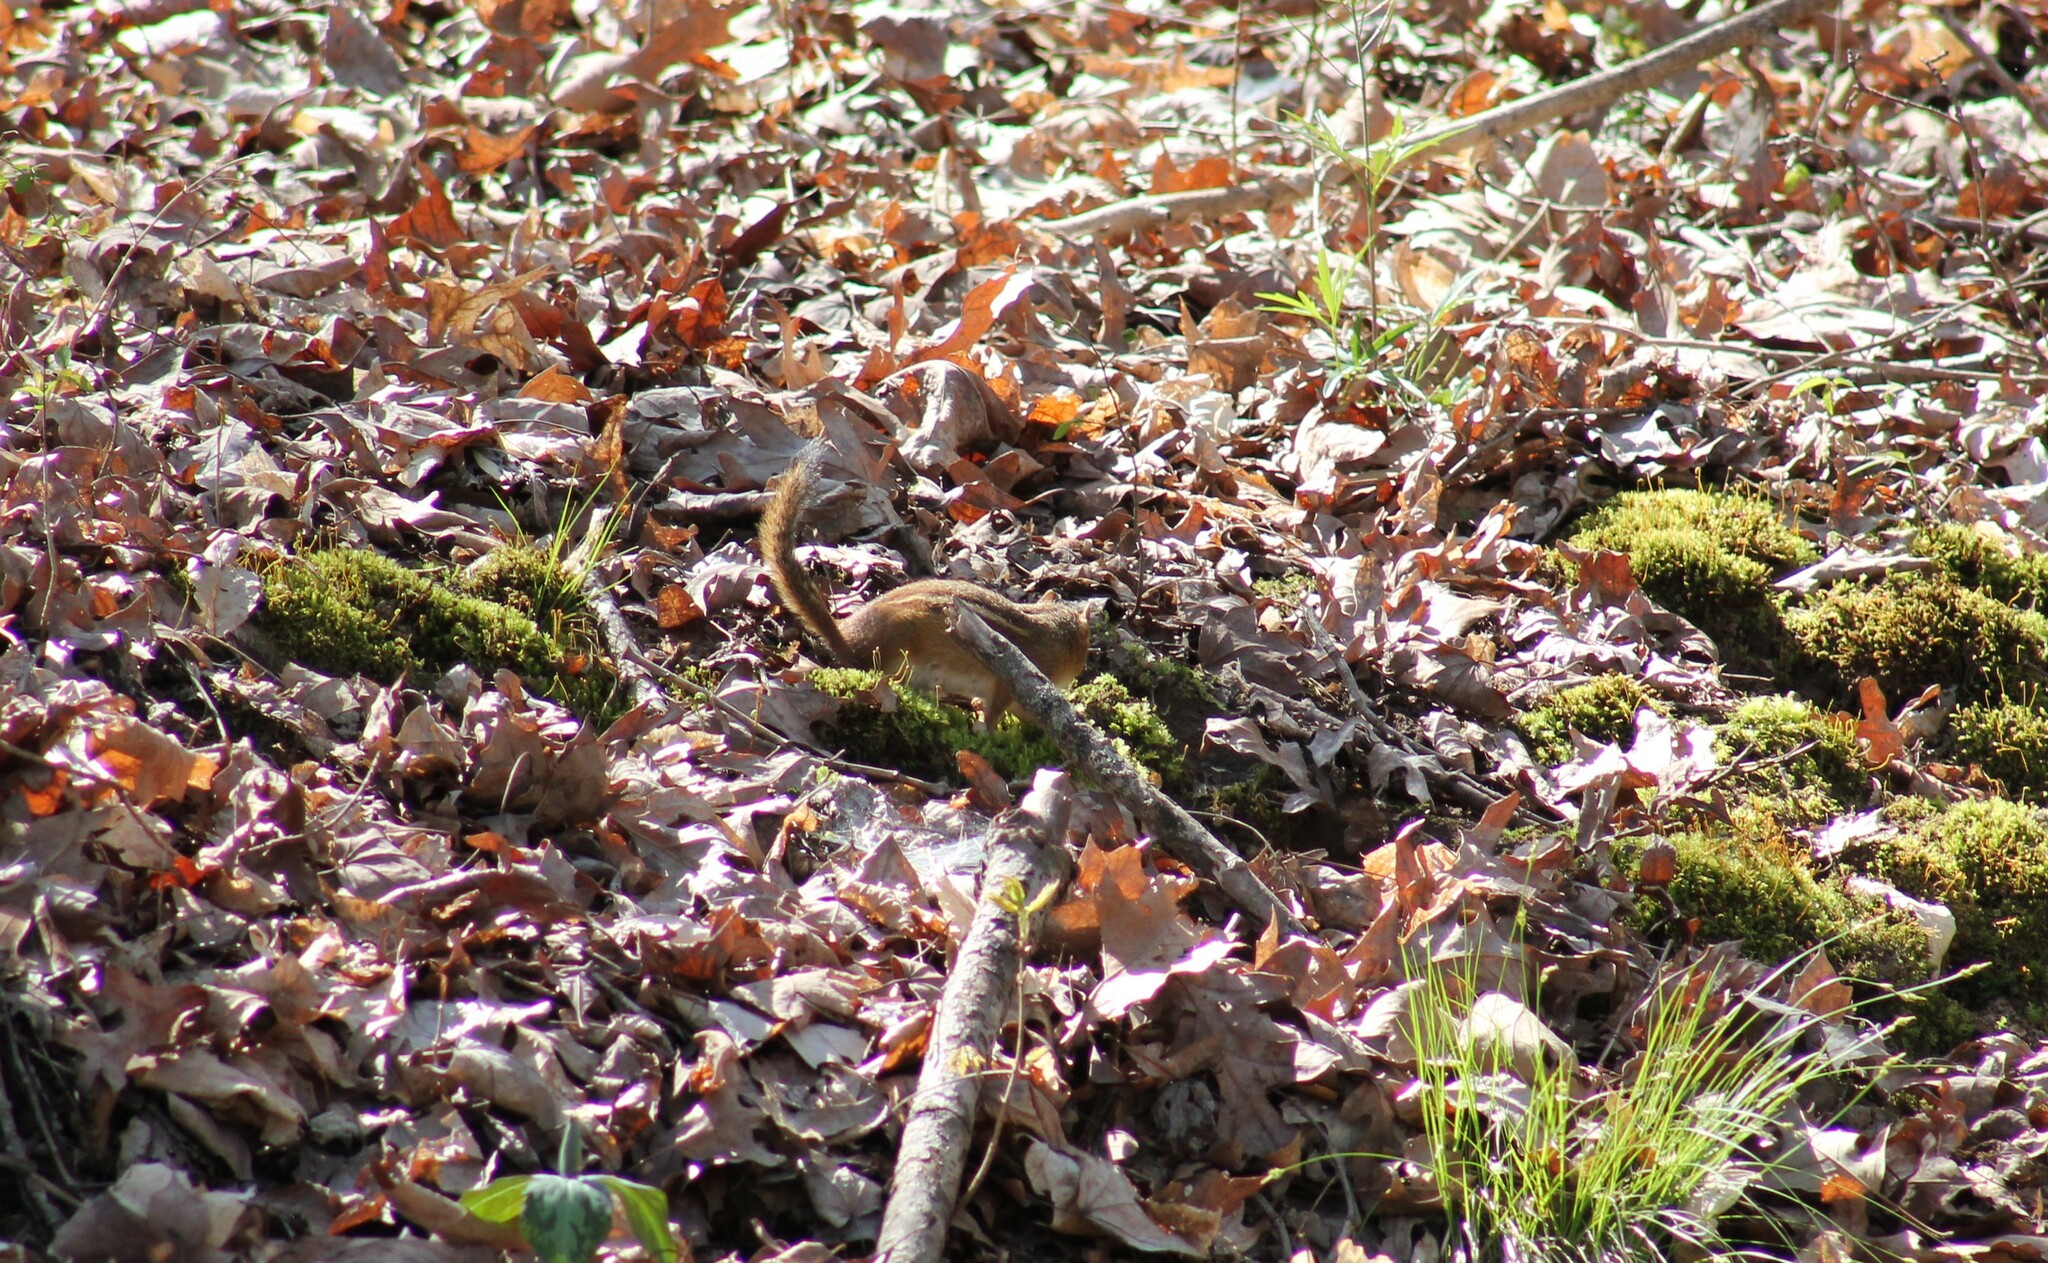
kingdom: Animalia
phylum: Chordata
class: Mammalia
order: Rodentia
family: Sciuridae
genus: Tamias
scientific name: Tamias striatus
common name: Eastern chipmunk
